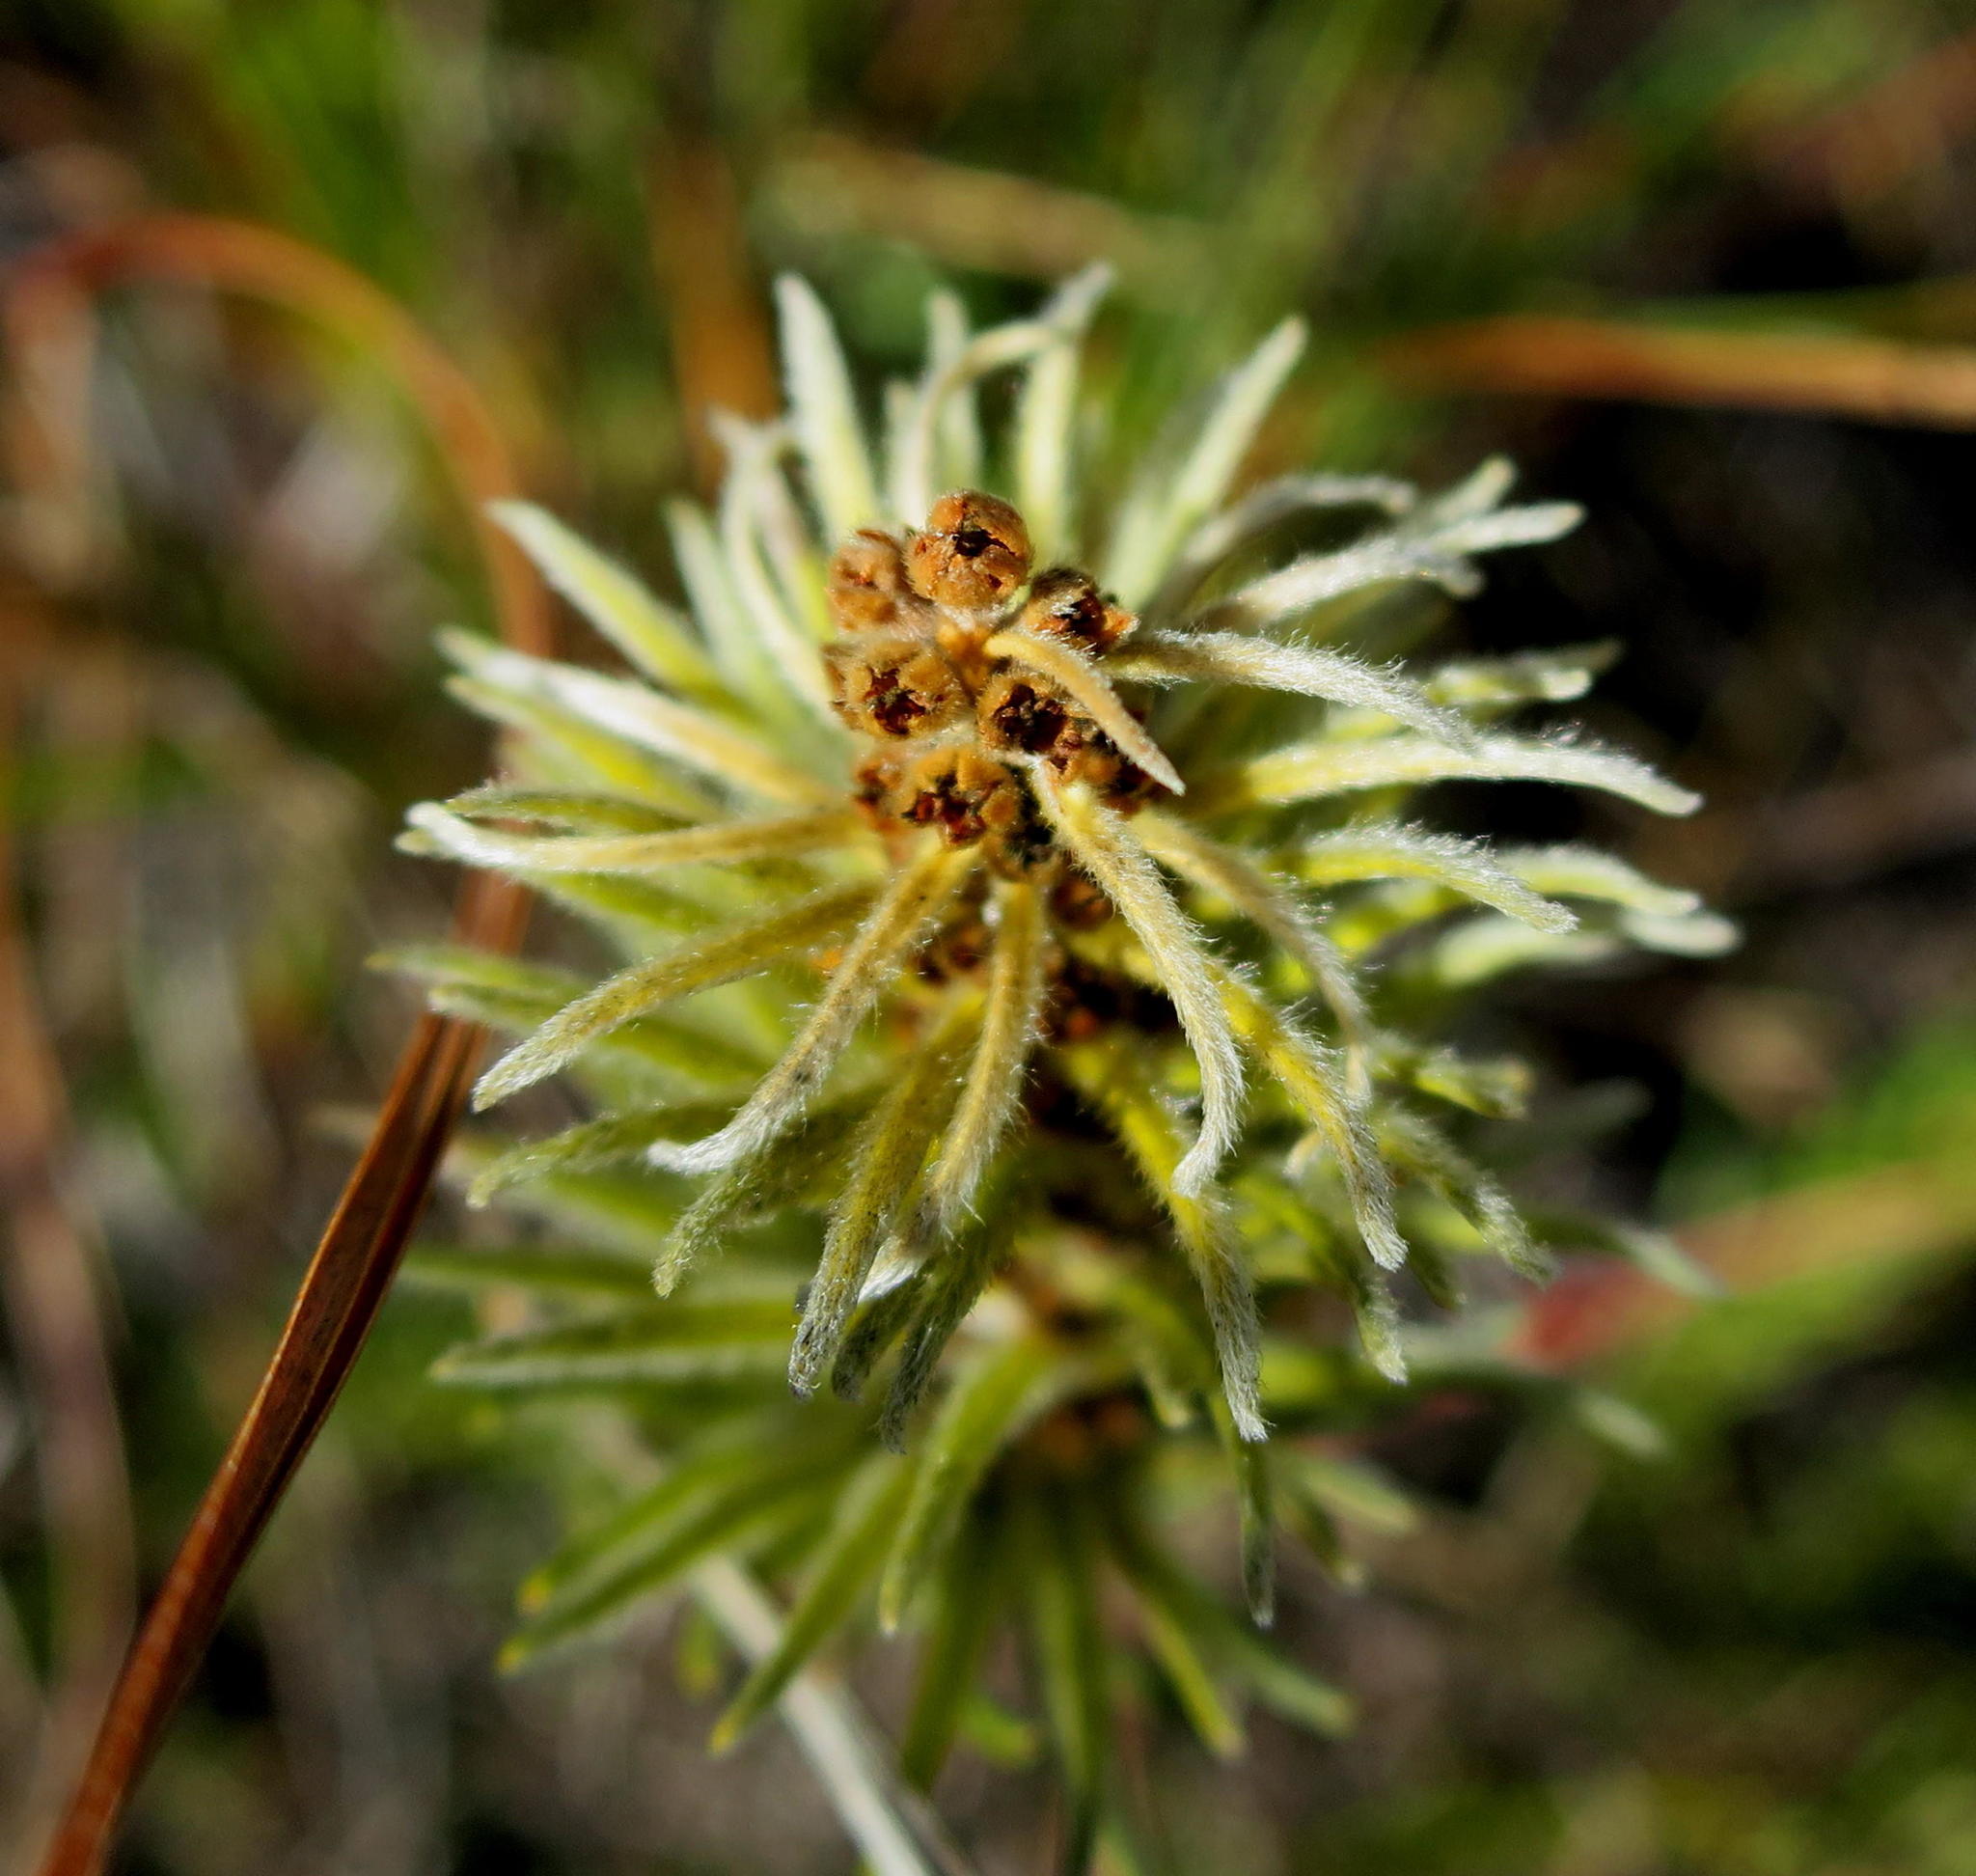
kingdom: Plantae
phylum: Tracheophyta
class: Magnoliopsida
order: Rosales
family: Rhamnaceae
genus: Phylica
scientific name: Phylica velutina
